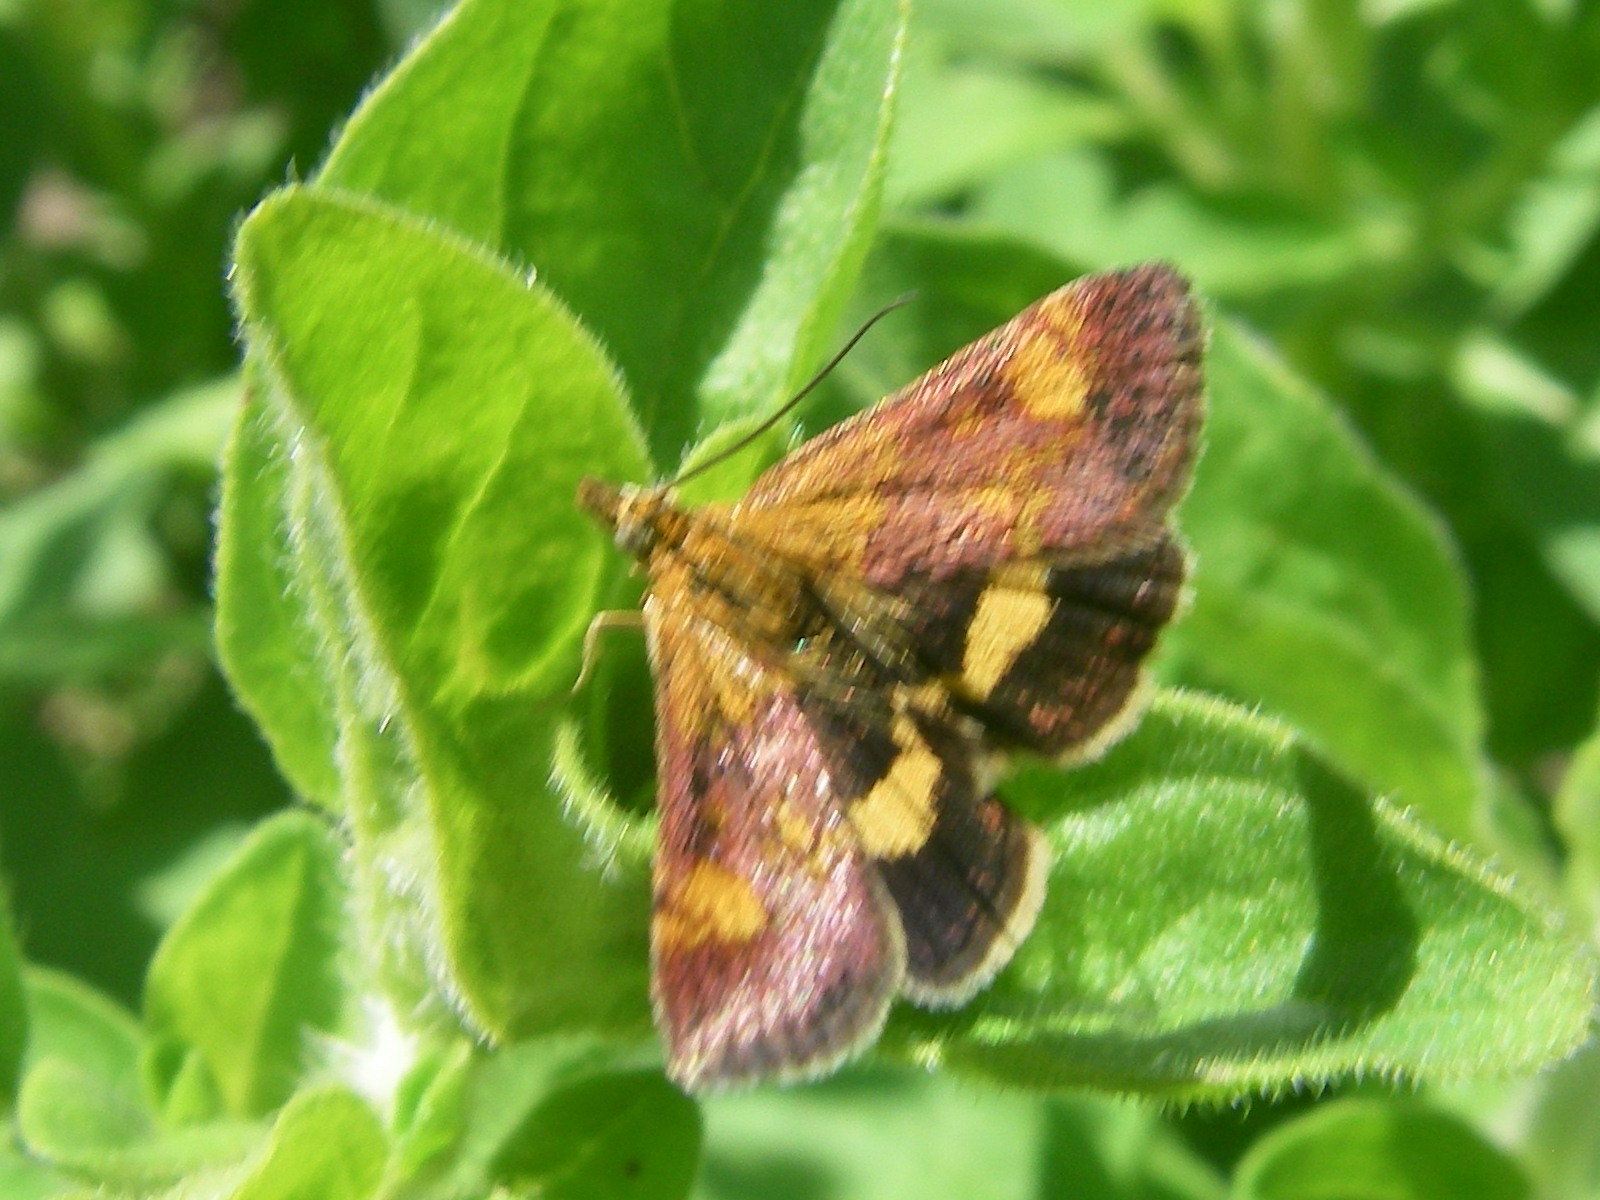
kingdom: Animalia
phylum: Arthropoda
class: Insecta
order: Lepidoptera
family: Crambidae
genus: Pyrausta
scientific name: Pyrausta aurata
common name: Small purple & gold
